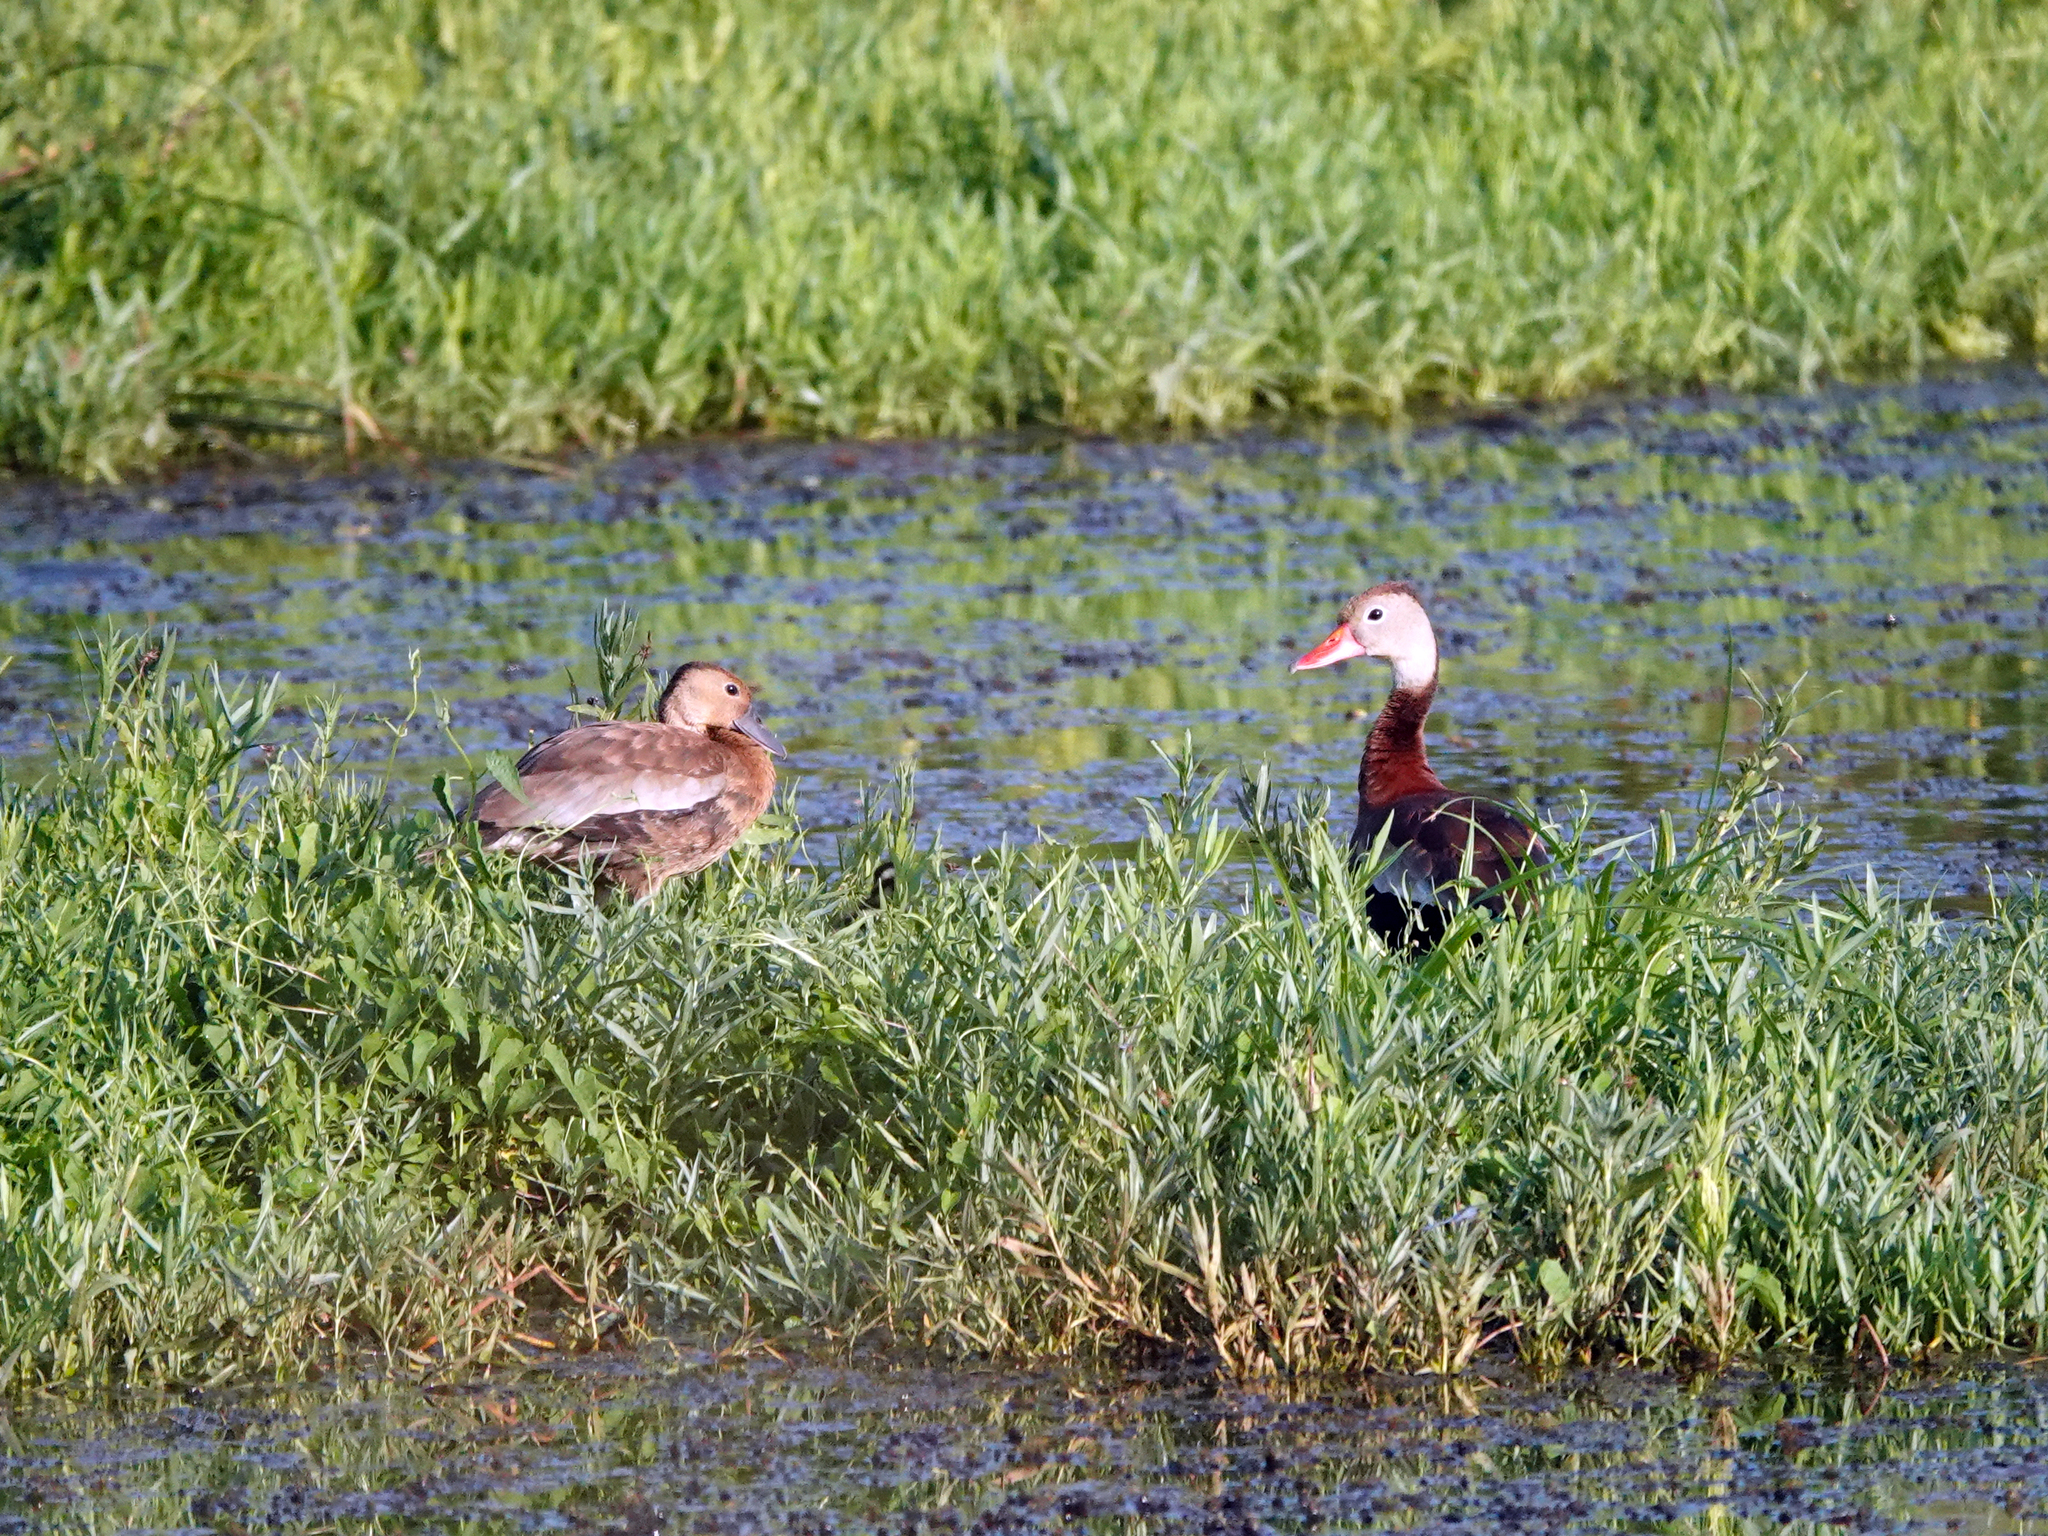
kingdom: Animalia
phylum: Chordata
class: Aves
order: Anseriformes
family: Anatidae
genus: Dendrocygna
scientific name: Dendrocygna autumnalis
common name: Black-bellied whistling duck
